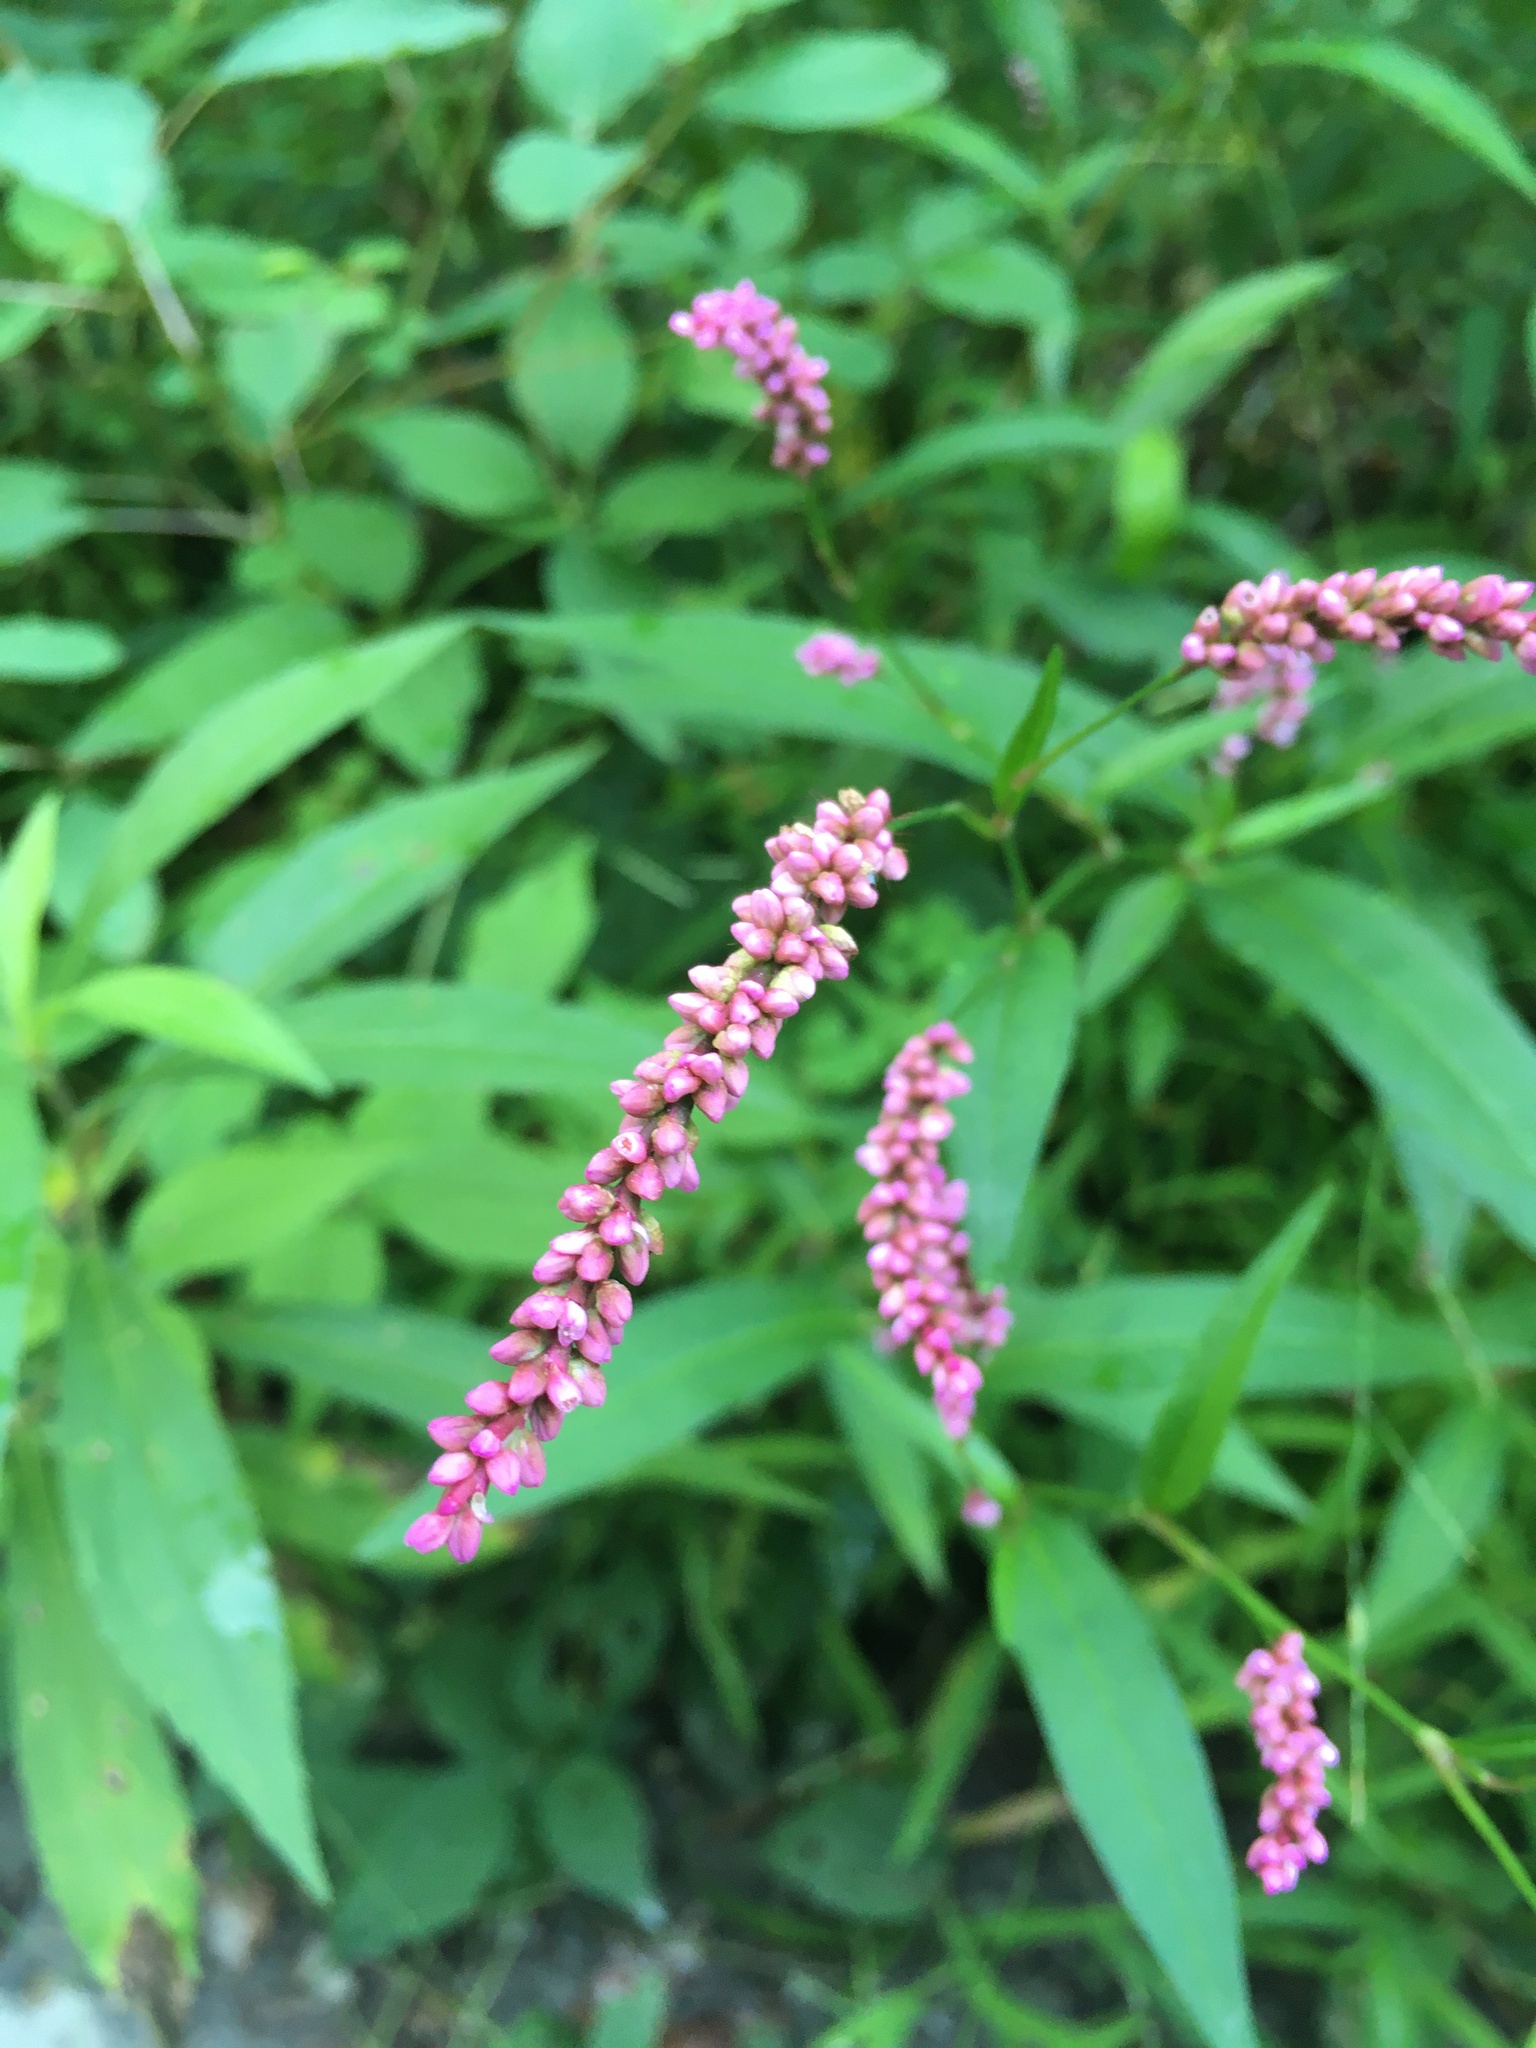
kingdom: Plantae
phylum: Tracheophyta
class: Magnoliopsida
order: Caryophyllales
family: Polygonaceae
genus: Persicaria
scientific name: Persicaria longiseta
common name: Bristly lady's-thumb
